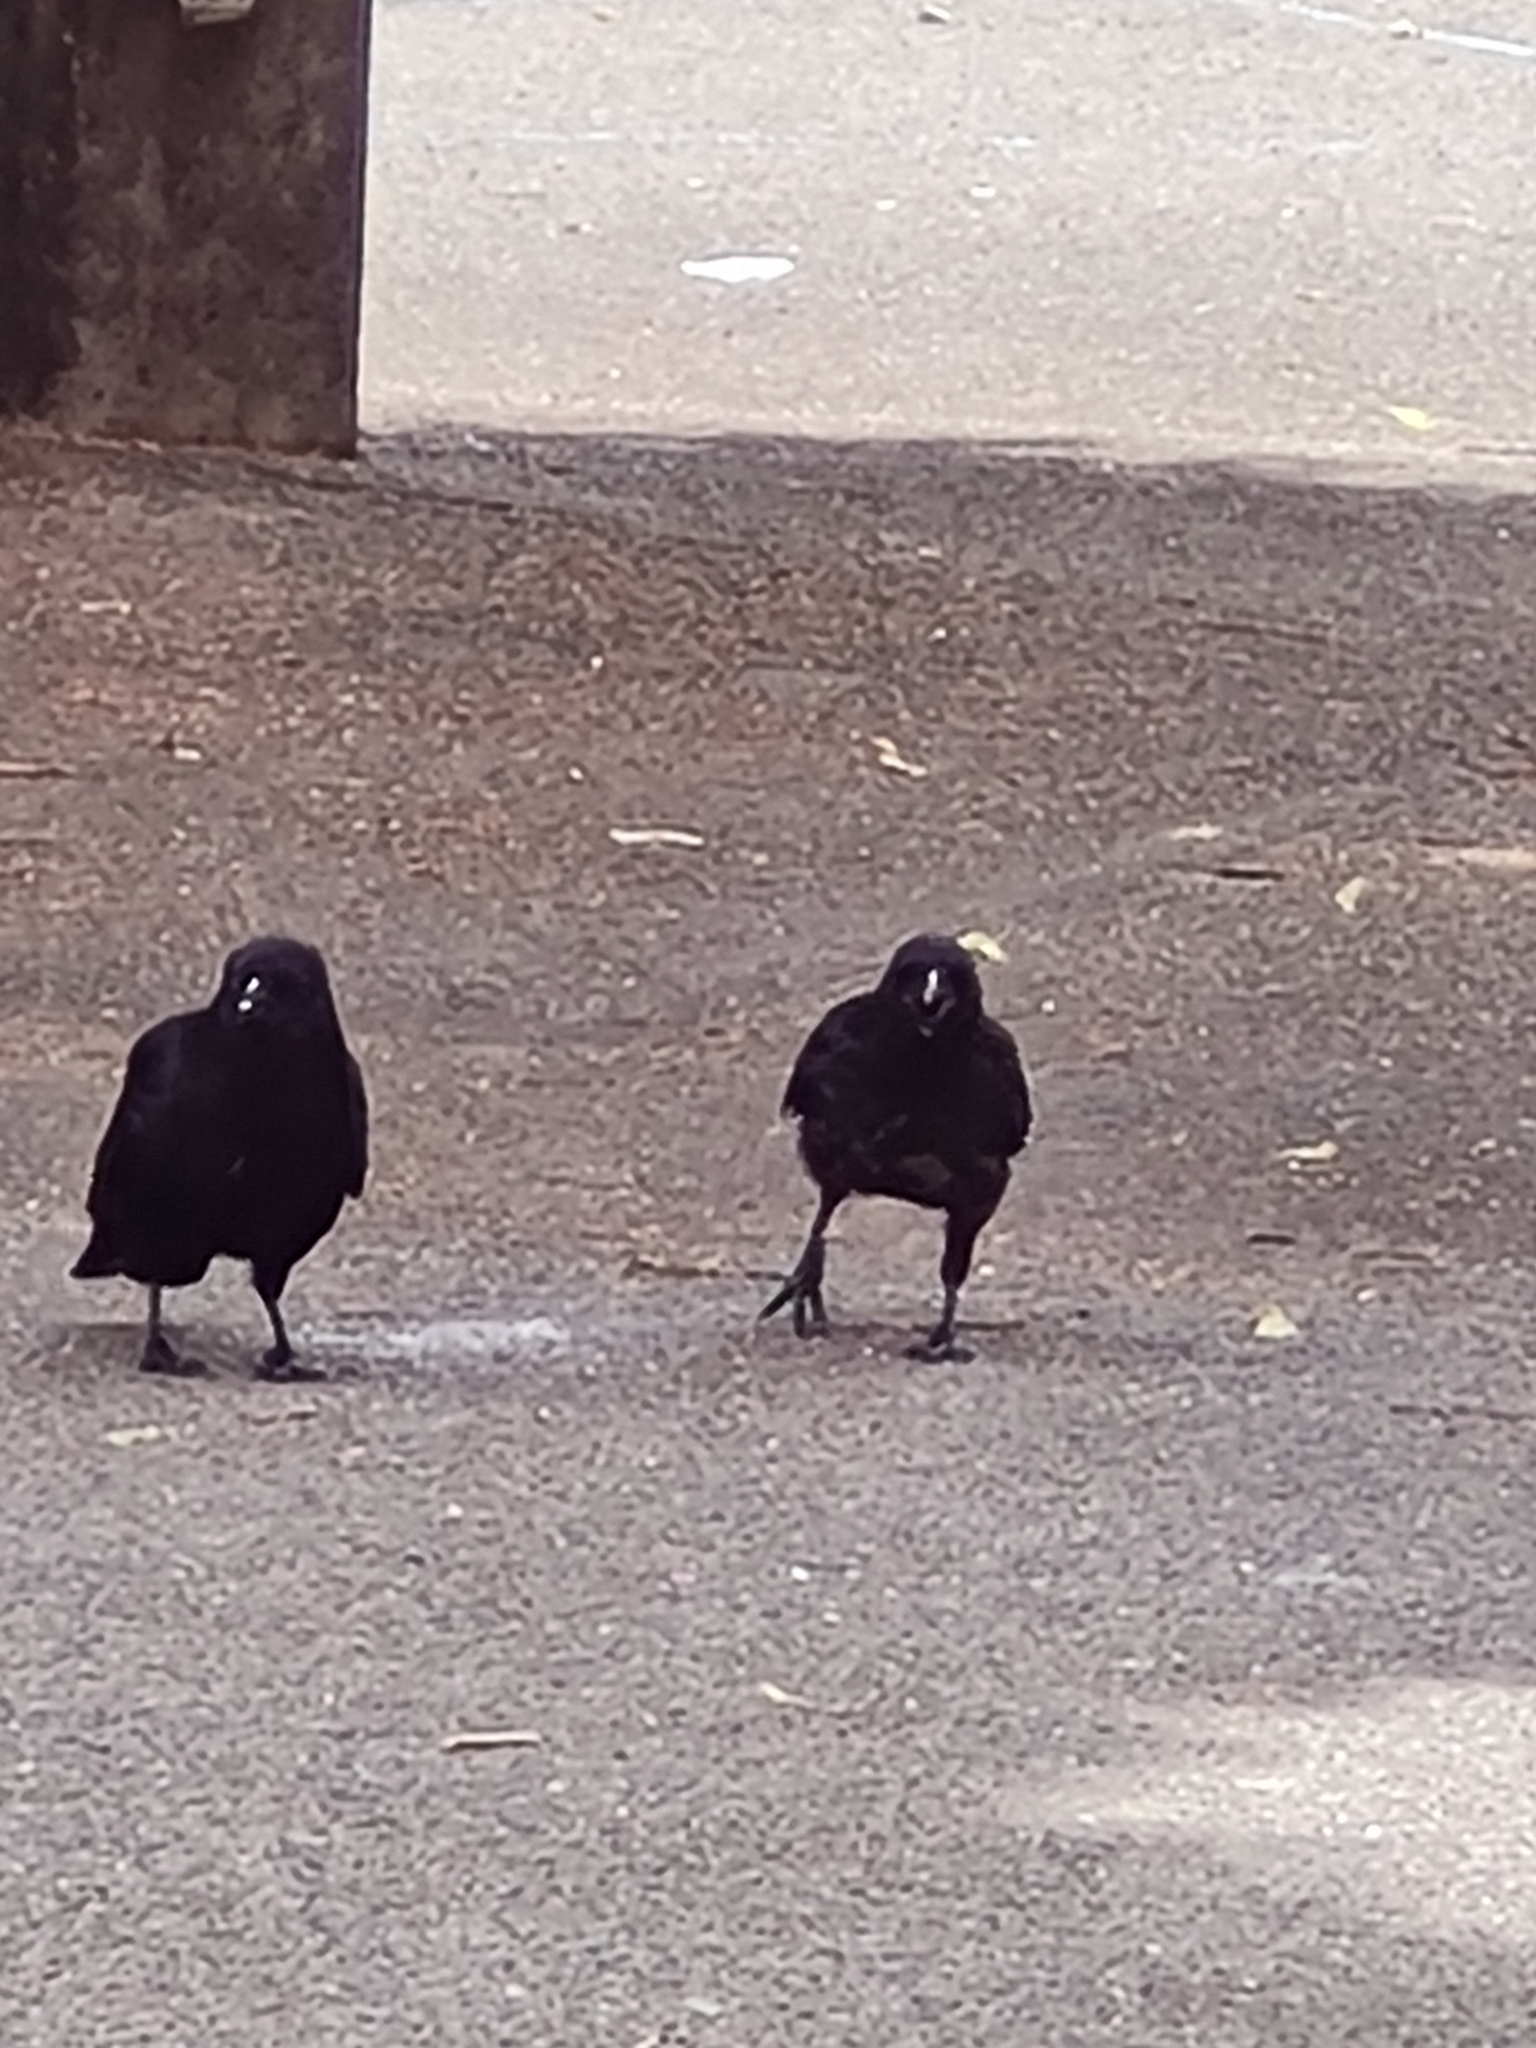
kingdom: Animalia
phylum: Chordata
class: Aves
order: Passeriformes
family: Corvidae
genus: Corvus
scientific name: Corvus corone
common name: Carrion crow
